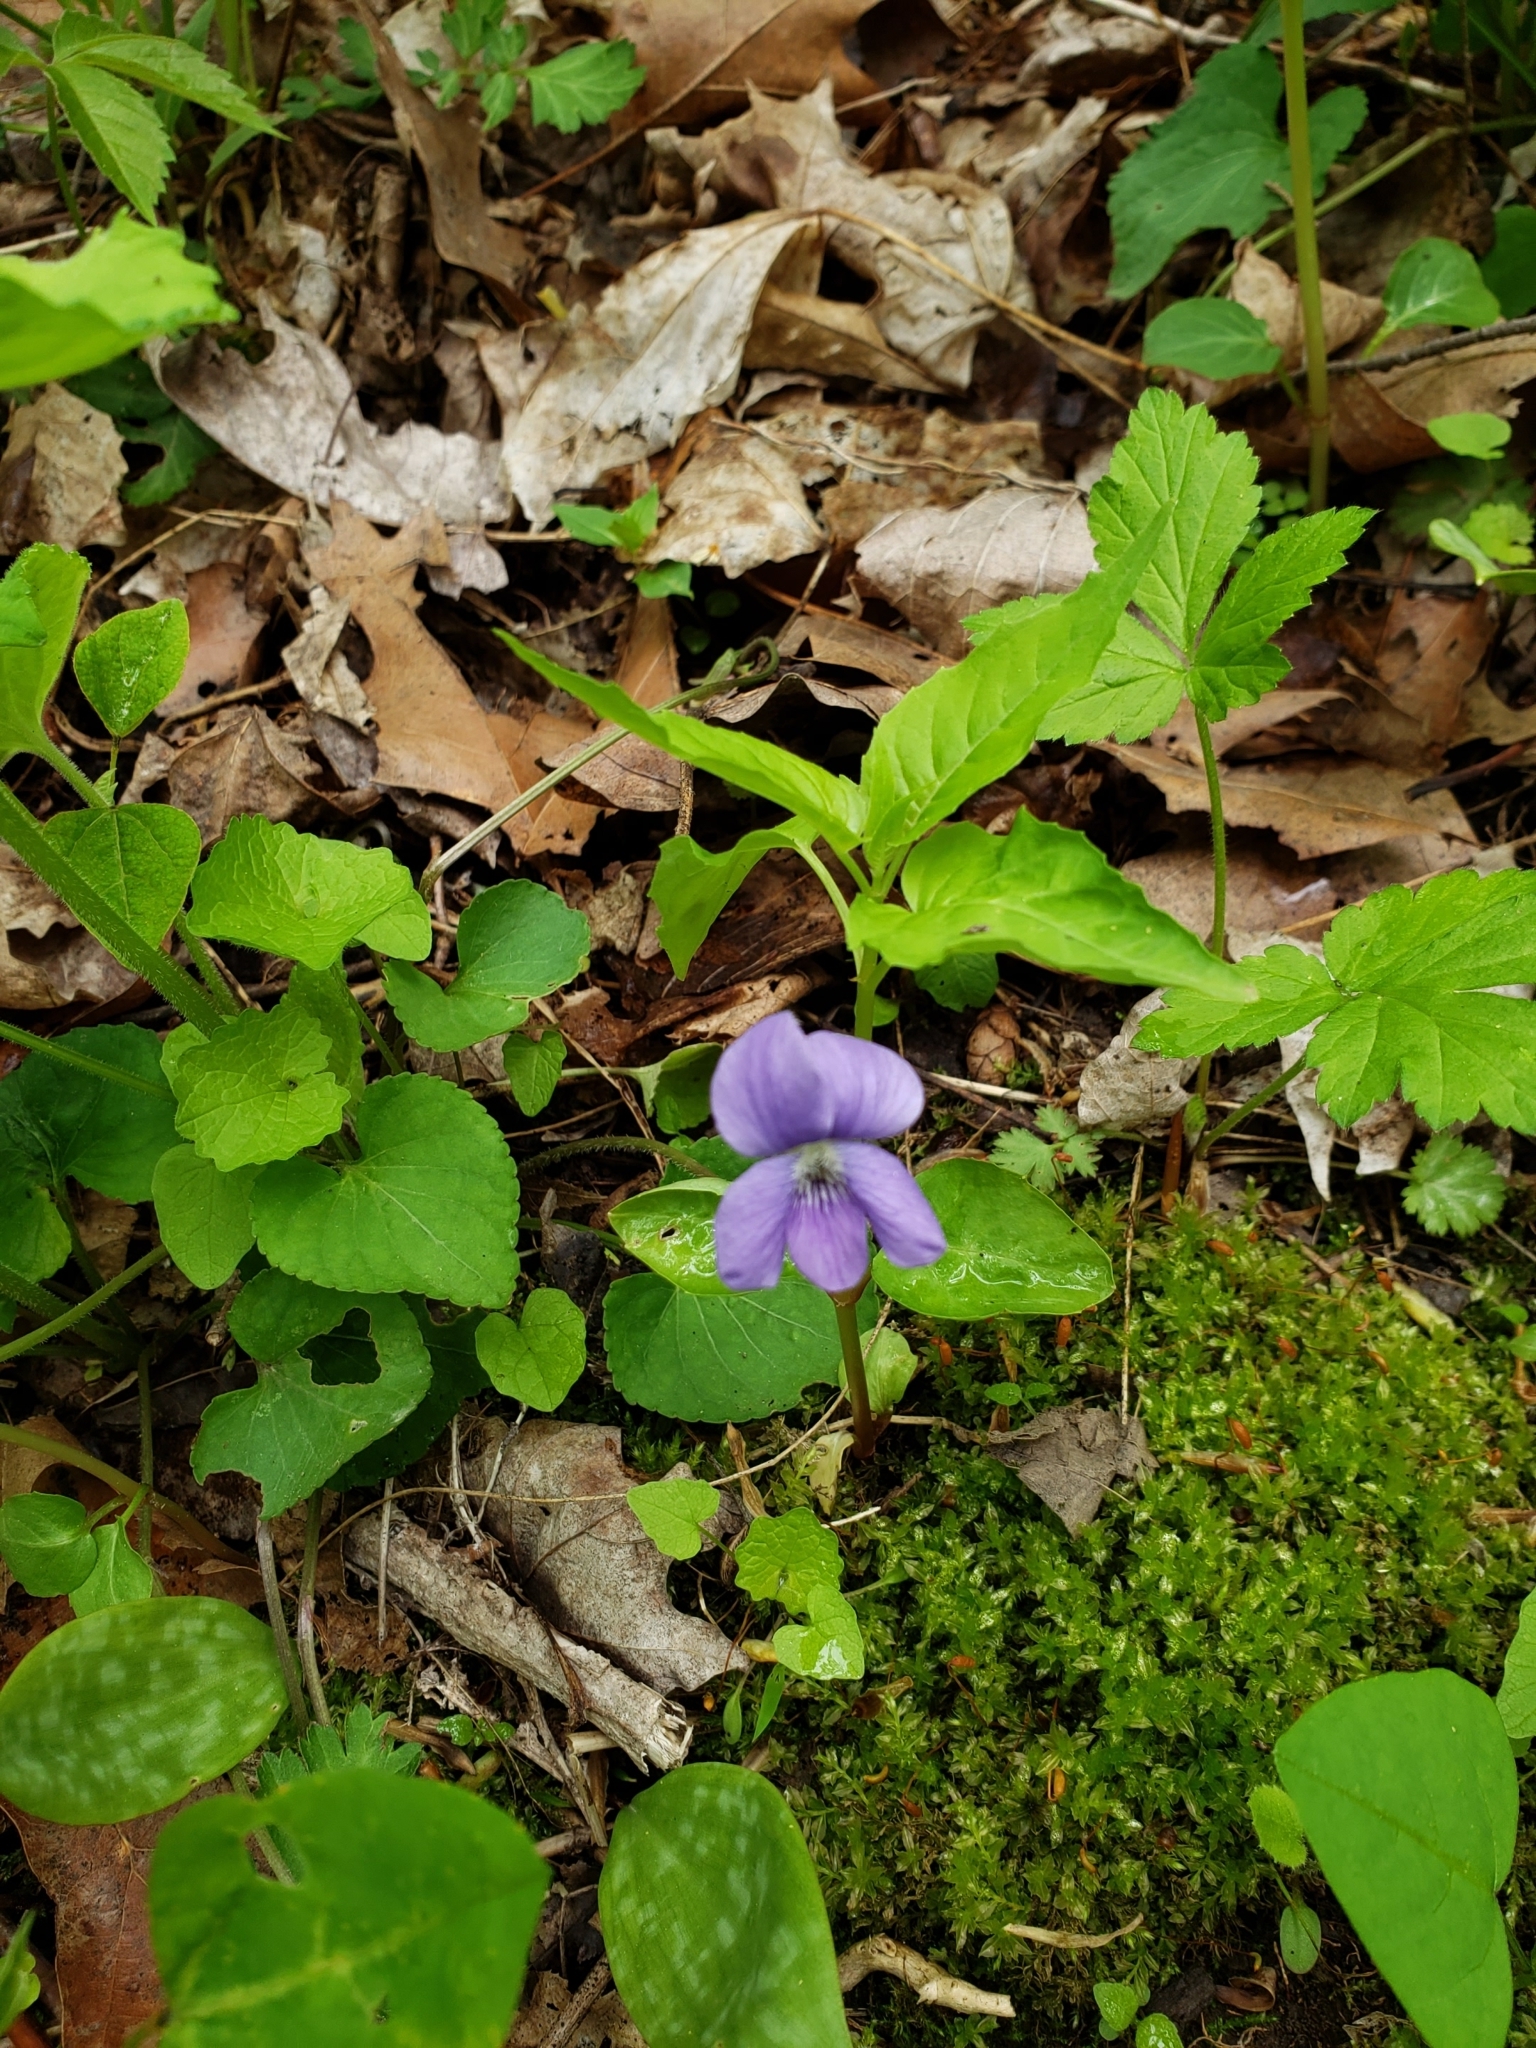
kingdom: Plantae
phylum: Tracheophyta
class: Magnoliopsida
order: Malpighiales
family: Violaceae
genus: Viola
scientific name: Viola sororia
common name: Dooryard violet
